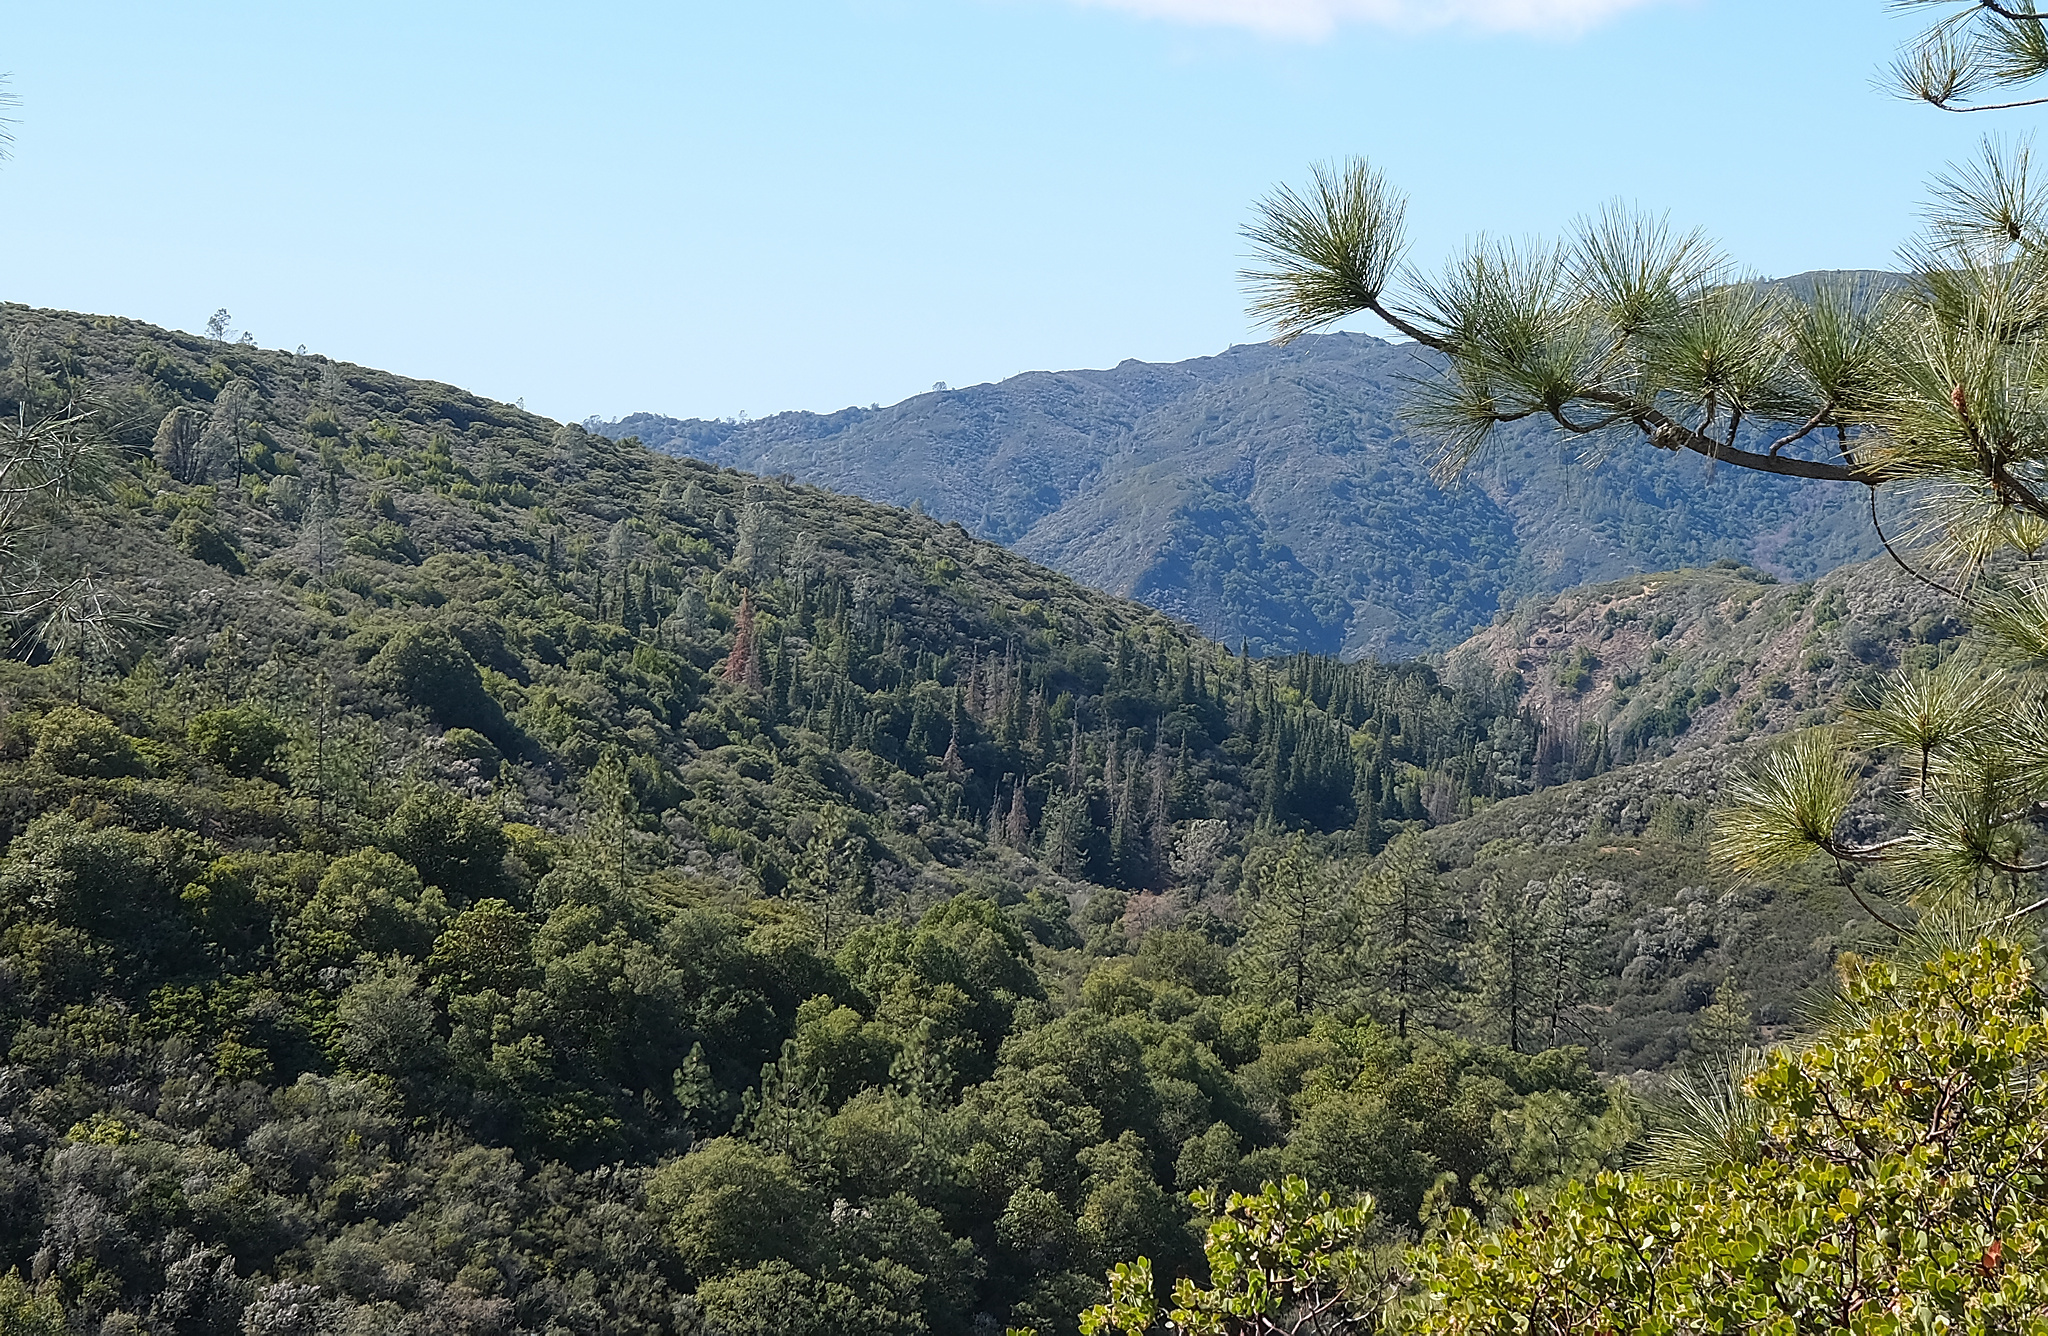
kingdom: Plantae
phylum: Tracheophyta
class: Pinopsida
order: Pinales
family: Pinaceae
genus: Abies
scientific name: Abies bracteata
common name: Bristlecone fir
